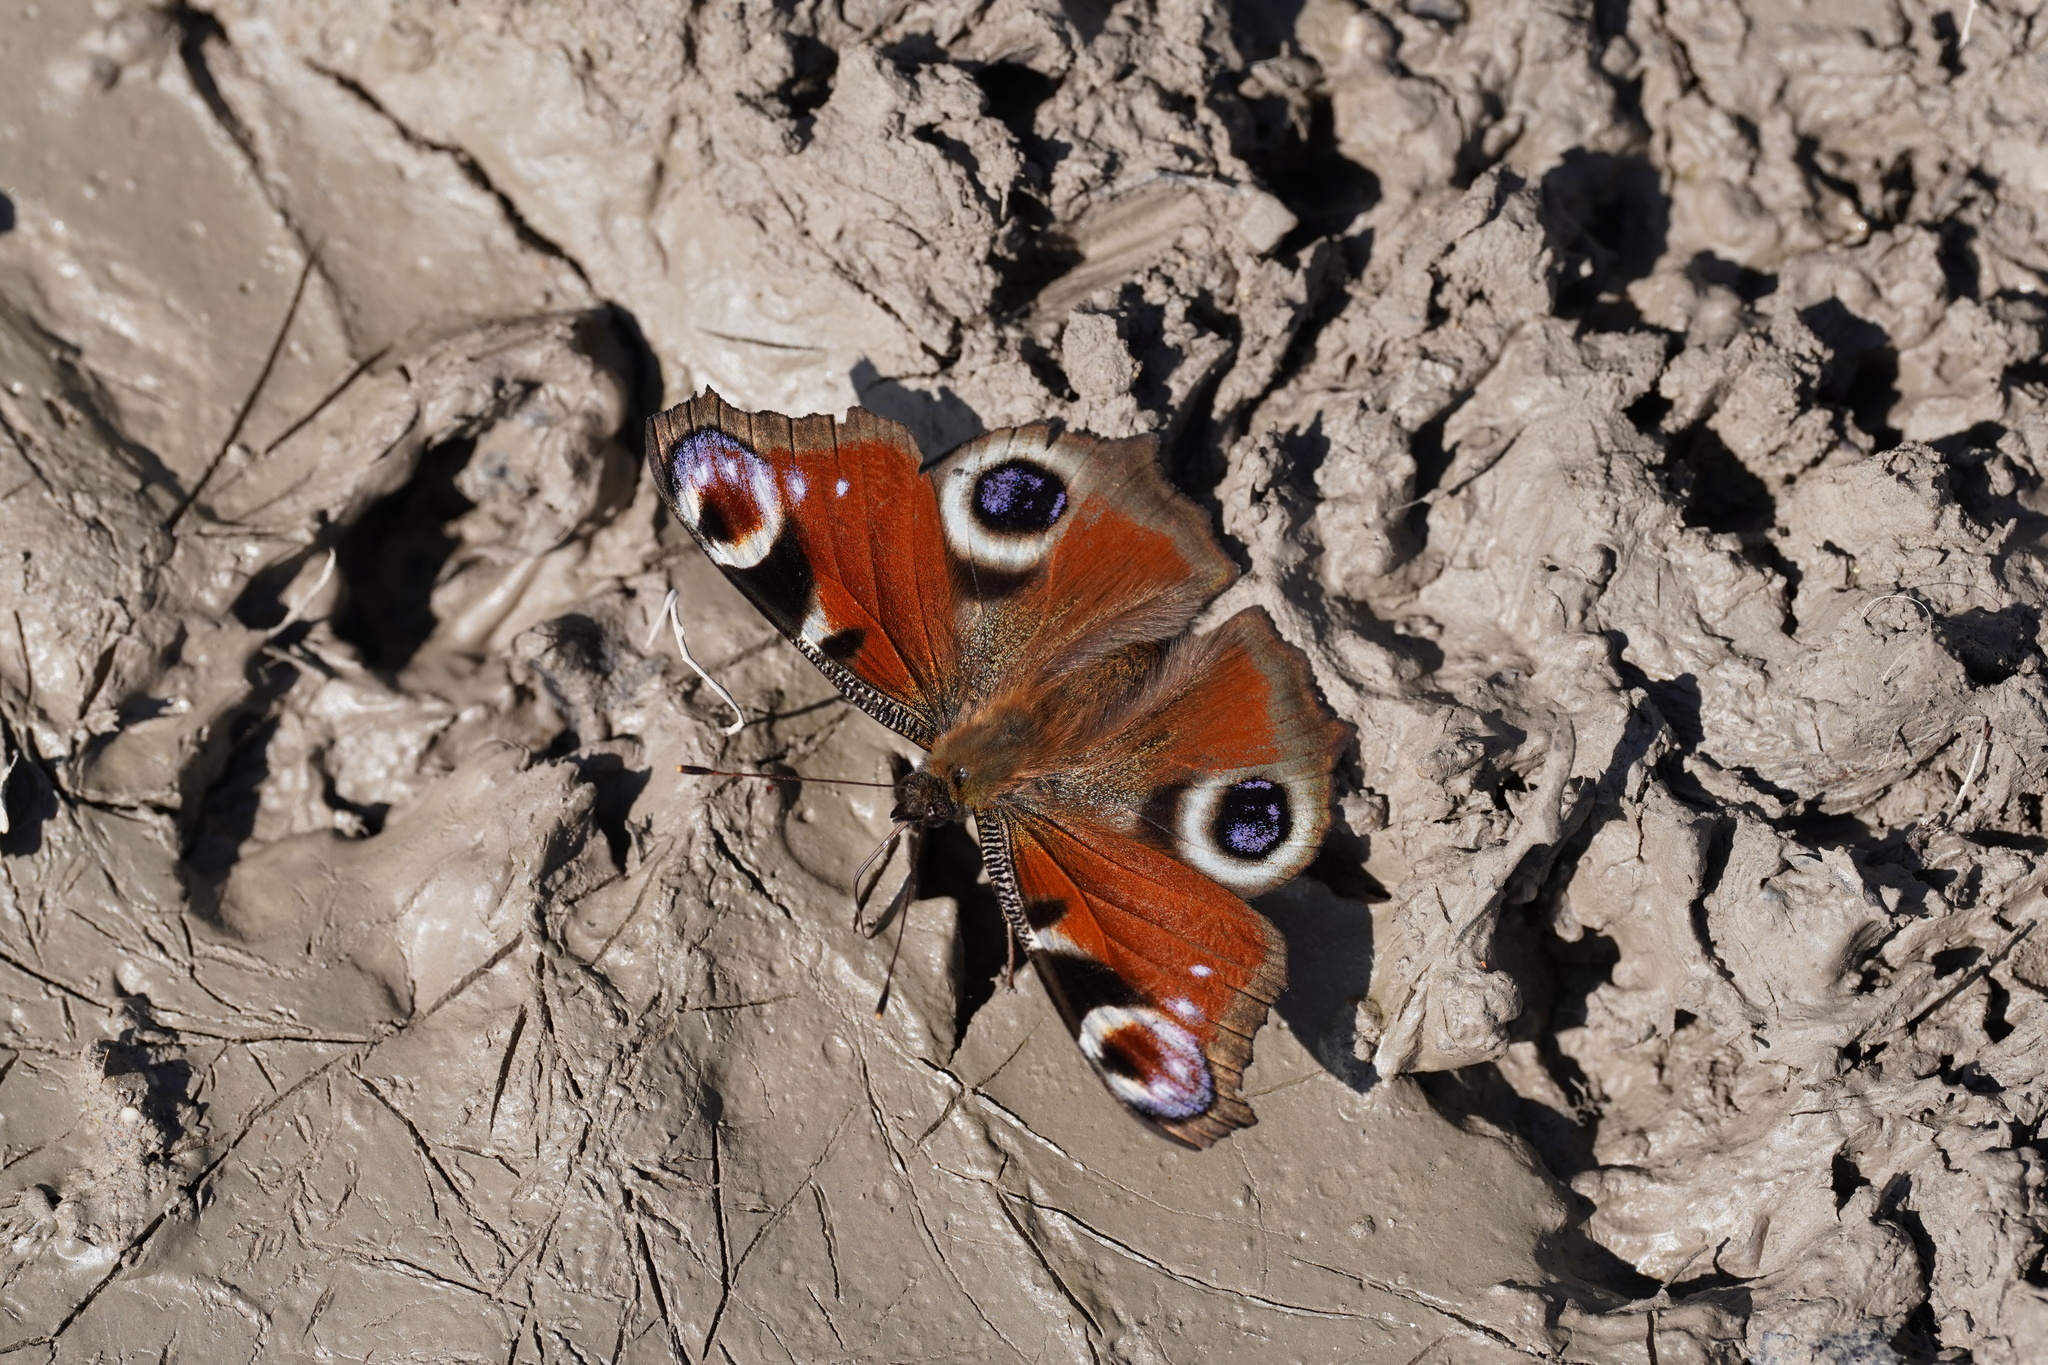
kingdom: Animalia
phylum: Arthropoda
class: Insecta
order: Lepidoptera
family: Nymphalidae
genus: Aglais
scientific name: Aglais io
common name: Peacock
